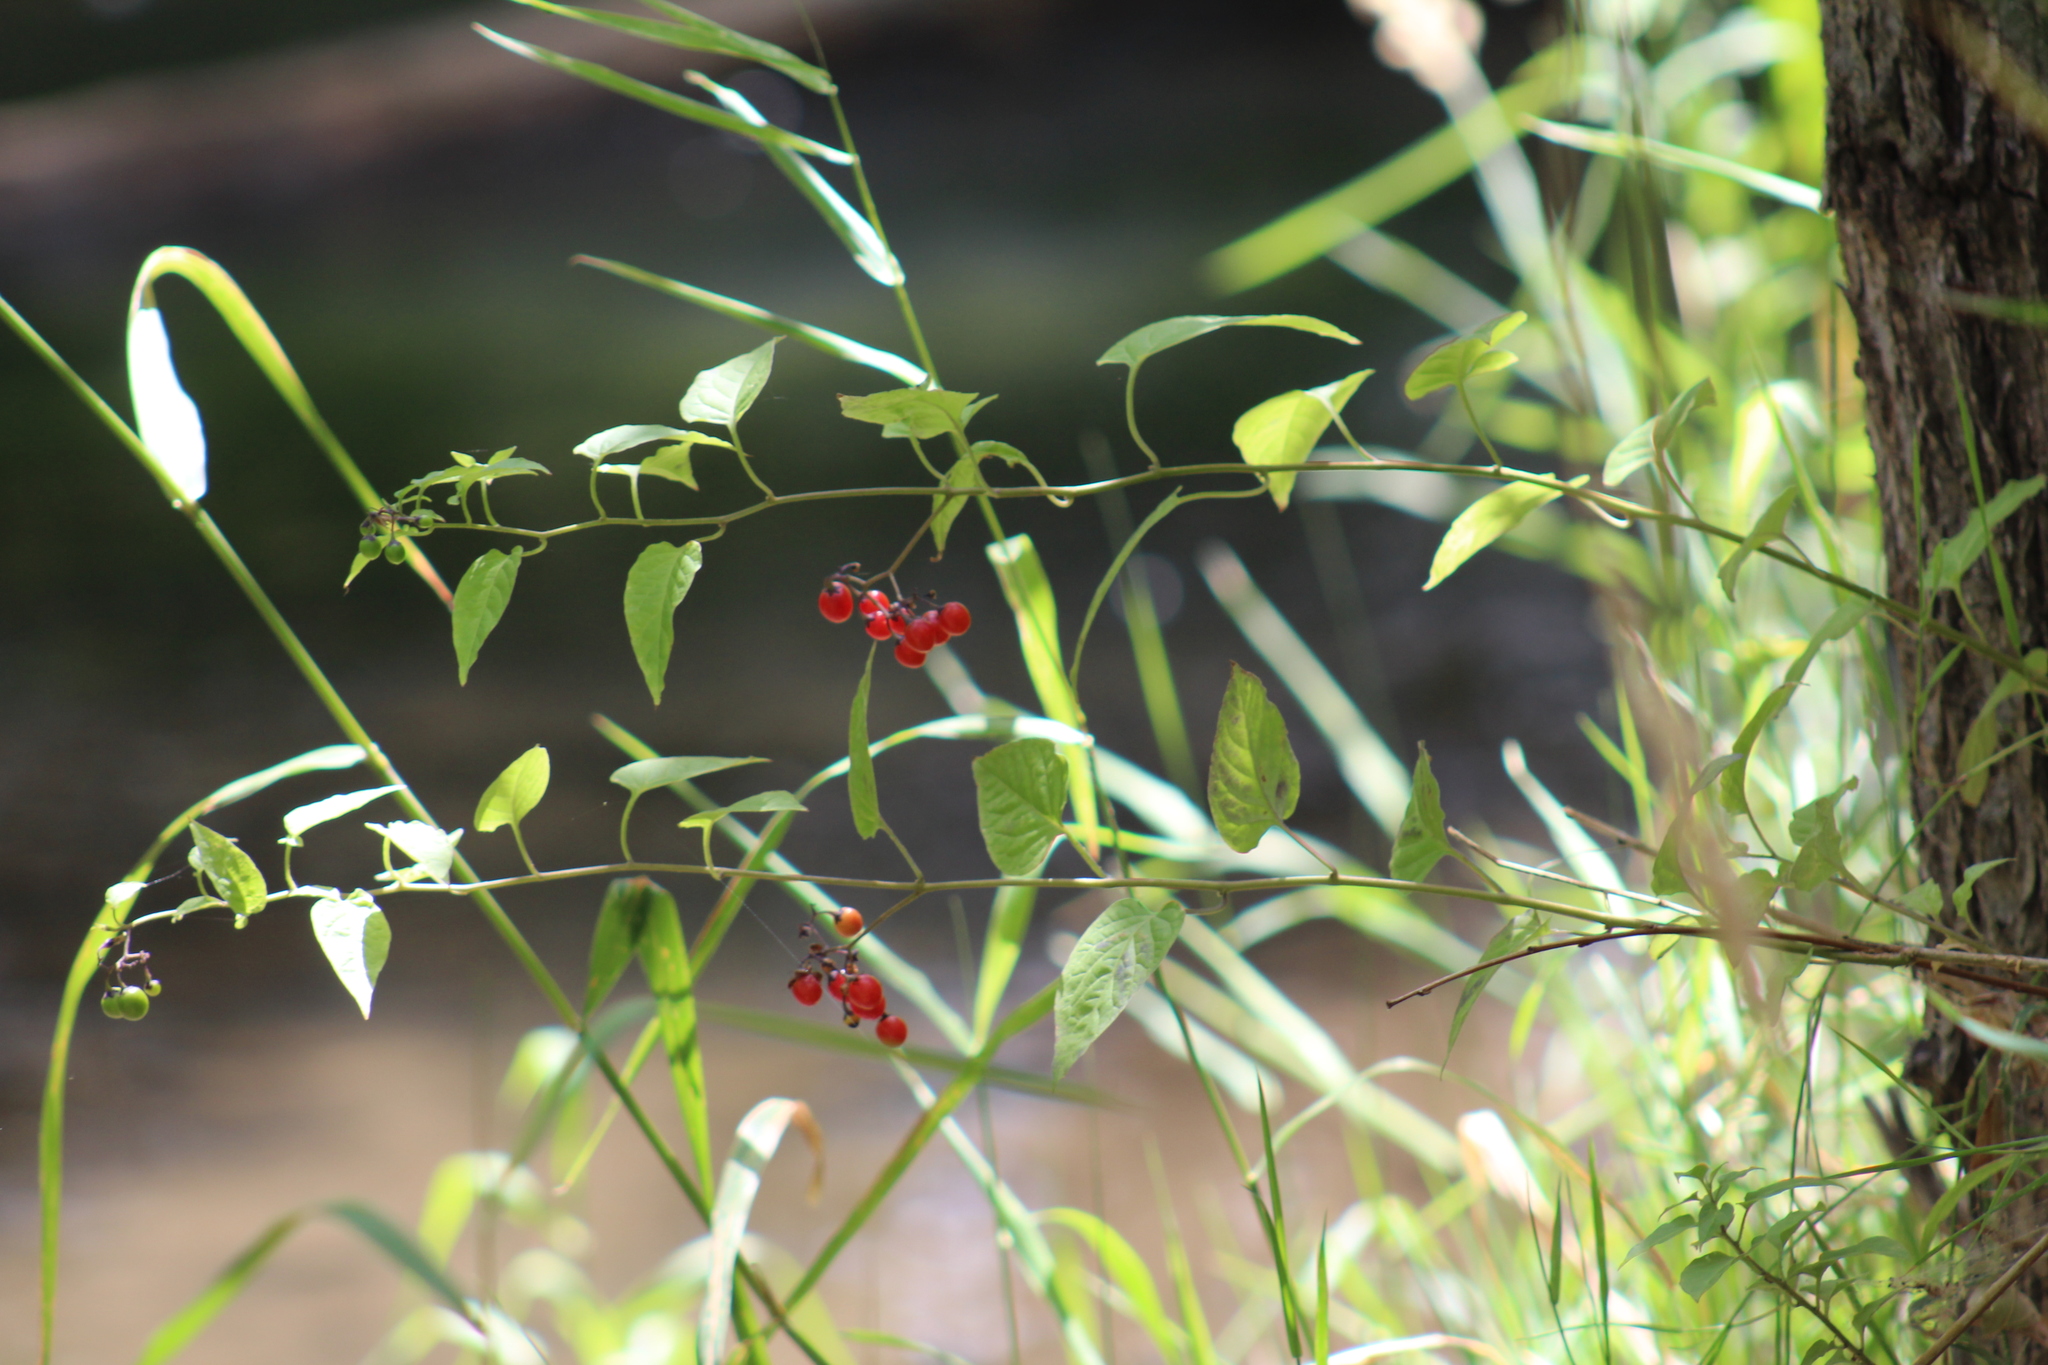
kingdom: Plantae
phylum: Tracheophyta
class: Magnoliopsida
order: Solanales
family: Solanaceae
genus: Solanum
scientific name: Solanum dulcamara
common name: Climbing nightshade
